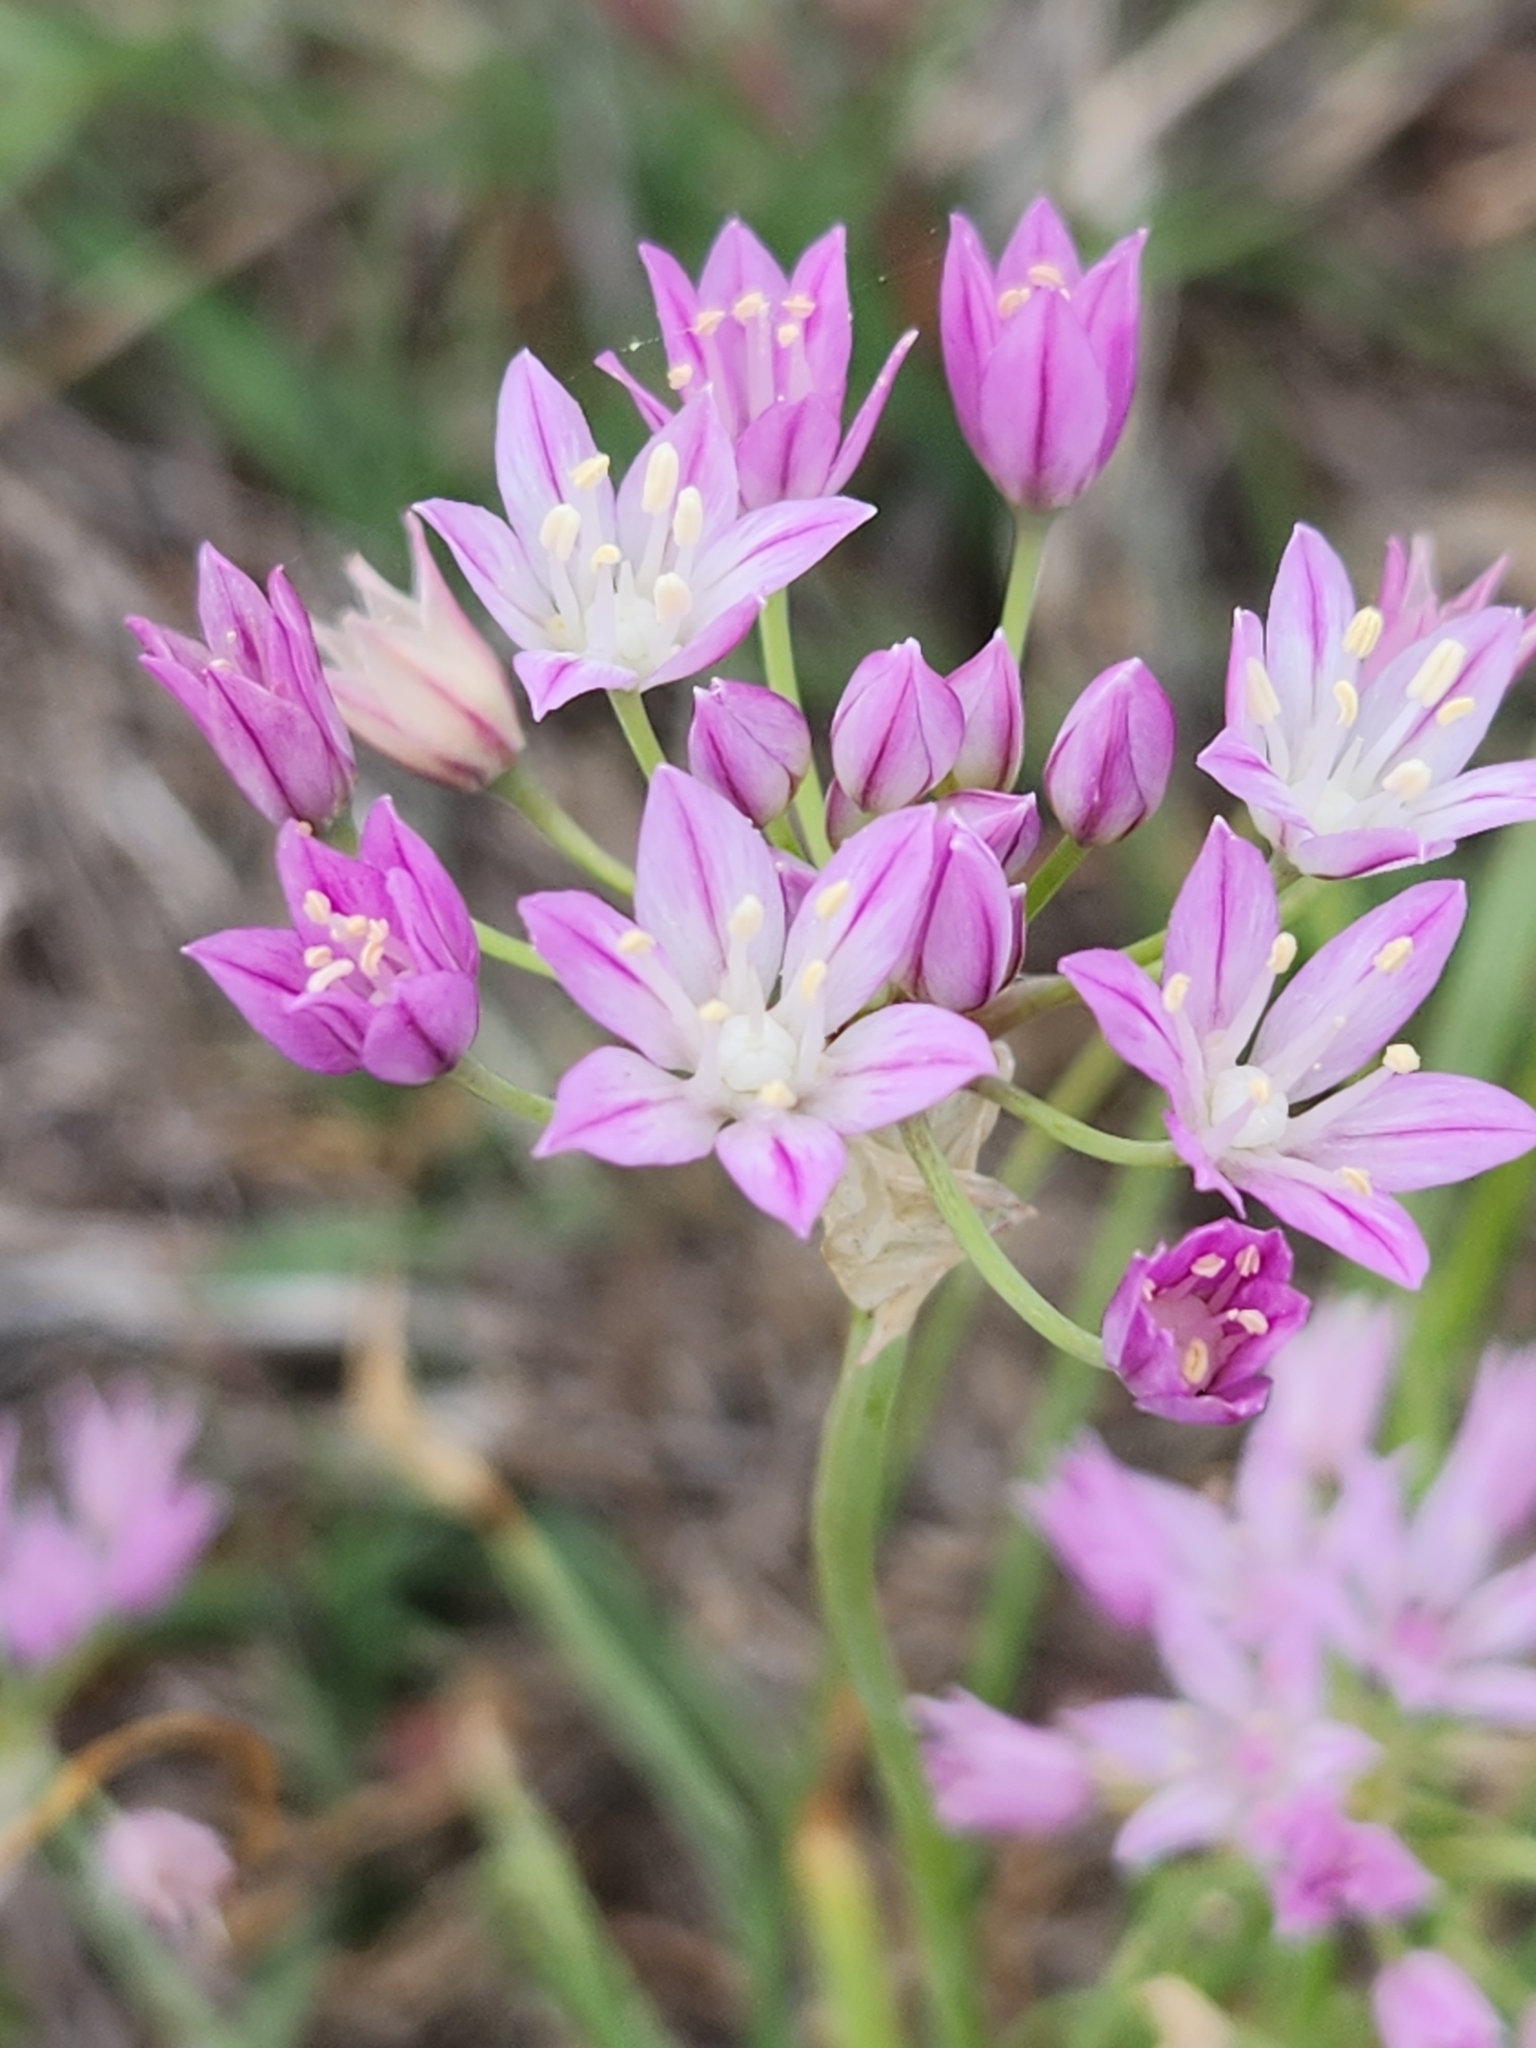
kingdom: Plantae
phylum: Tracheophyta
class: Liliopsida
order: Asparagales
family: Amaryllidaceae
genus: Allium
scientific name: Allium drummondii
